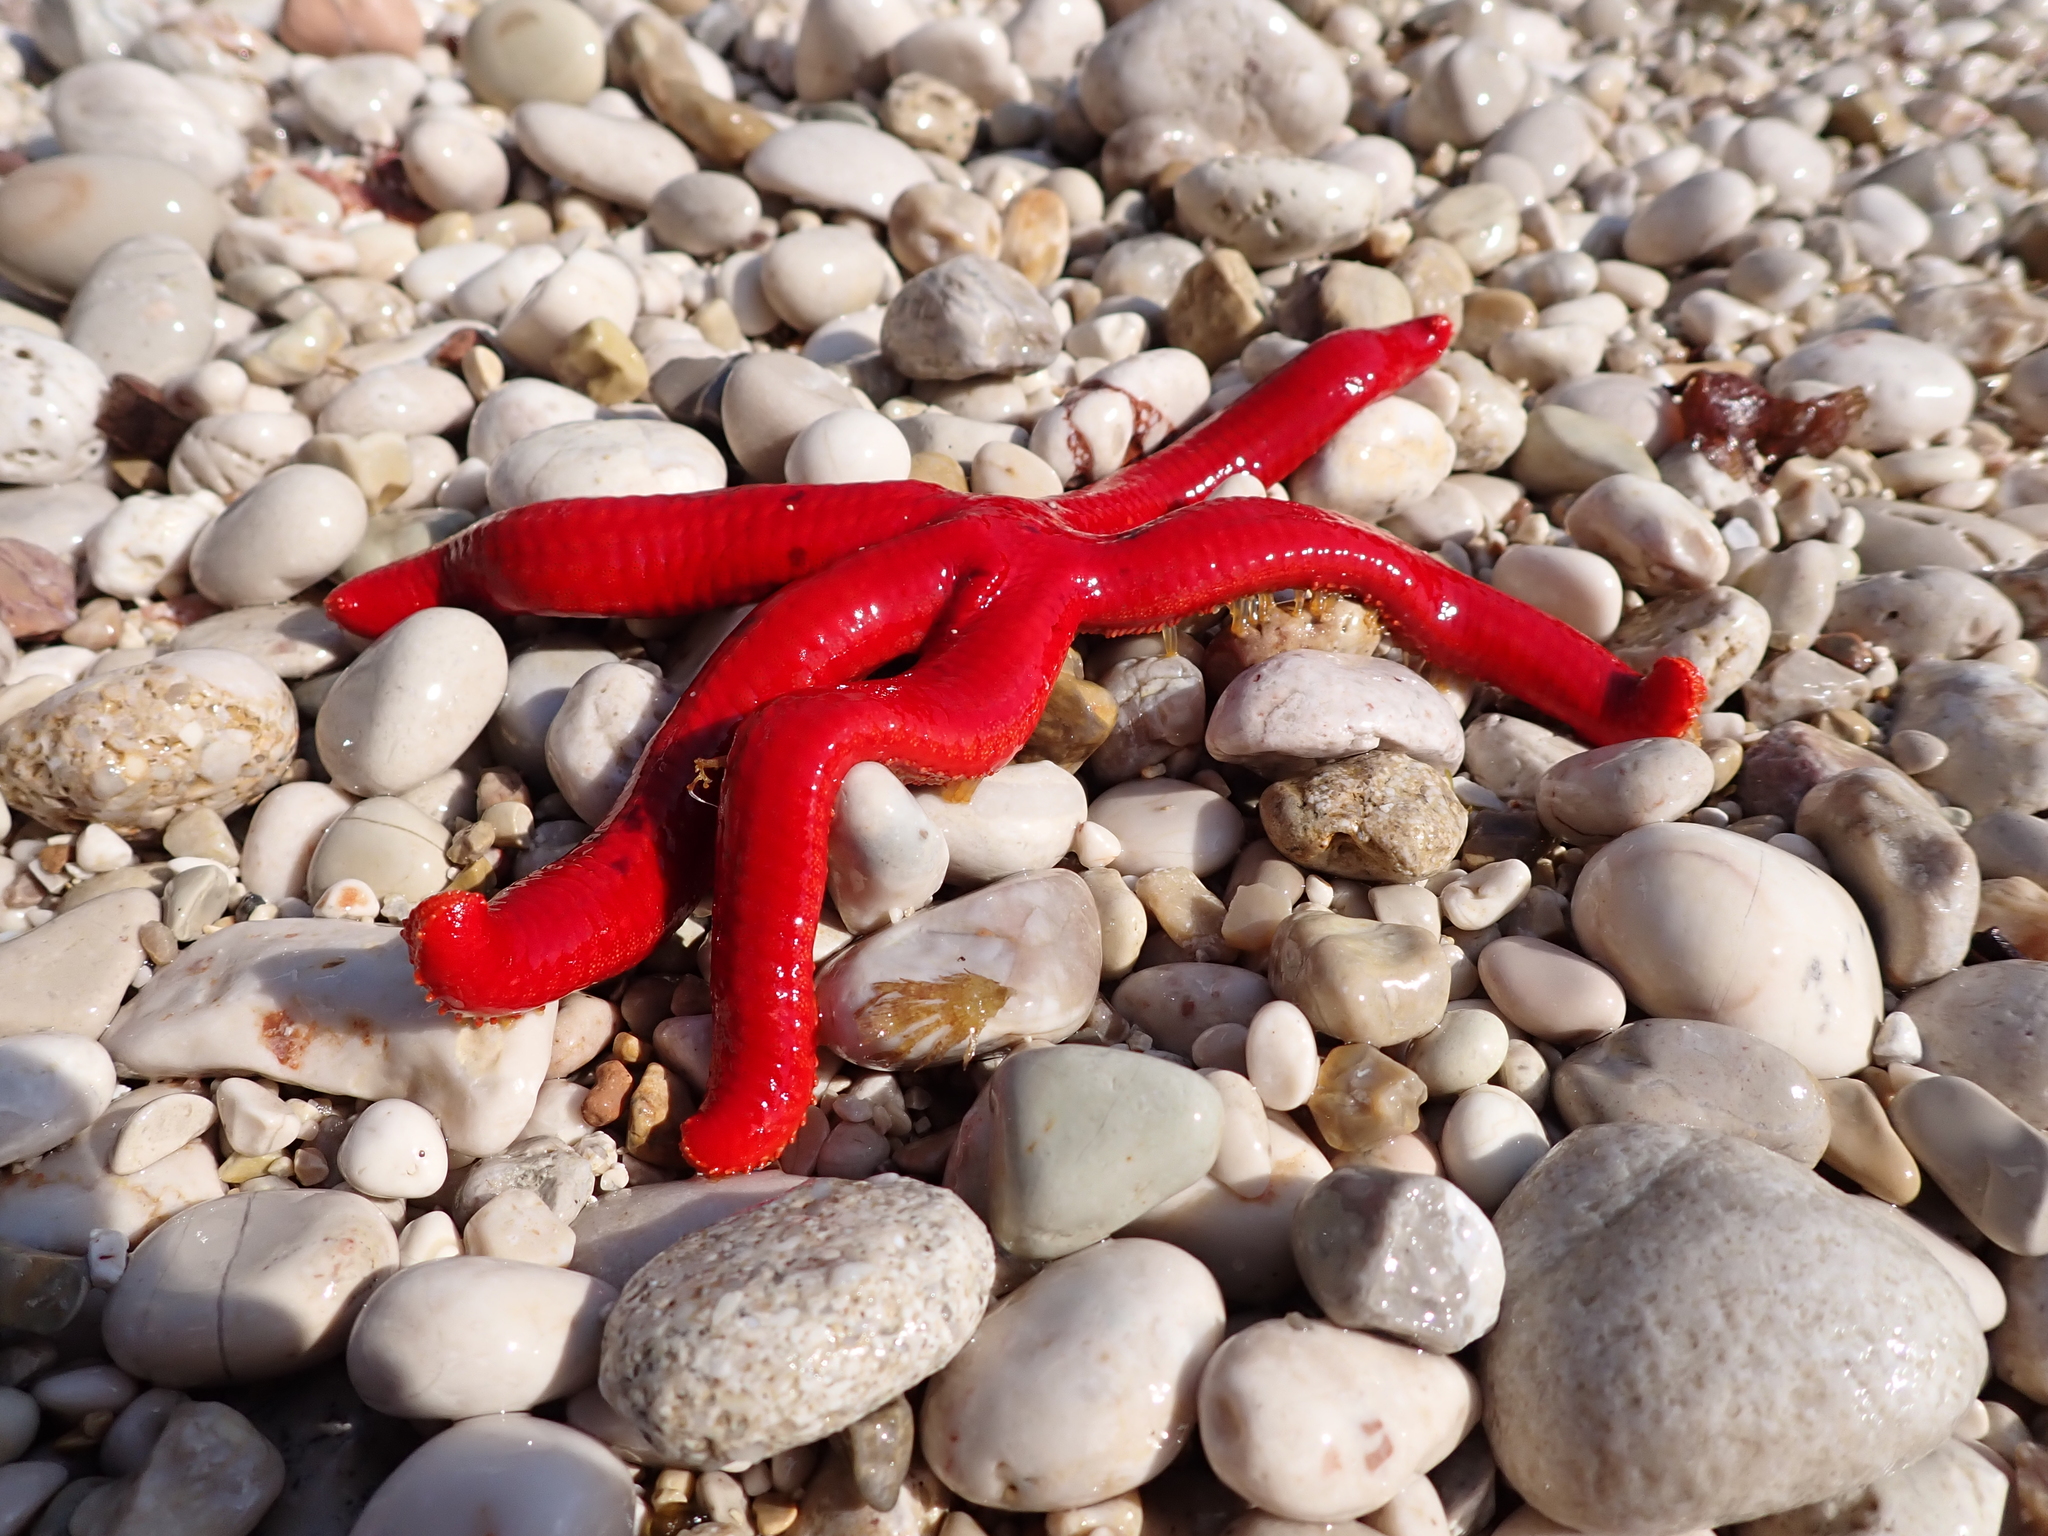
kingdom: Animalia
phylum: Echinodermata
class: Asteroidea
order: Valvatida
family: Ophidiasteridae
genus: Ophidiaster
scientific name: Ophidiaster ophidianus
